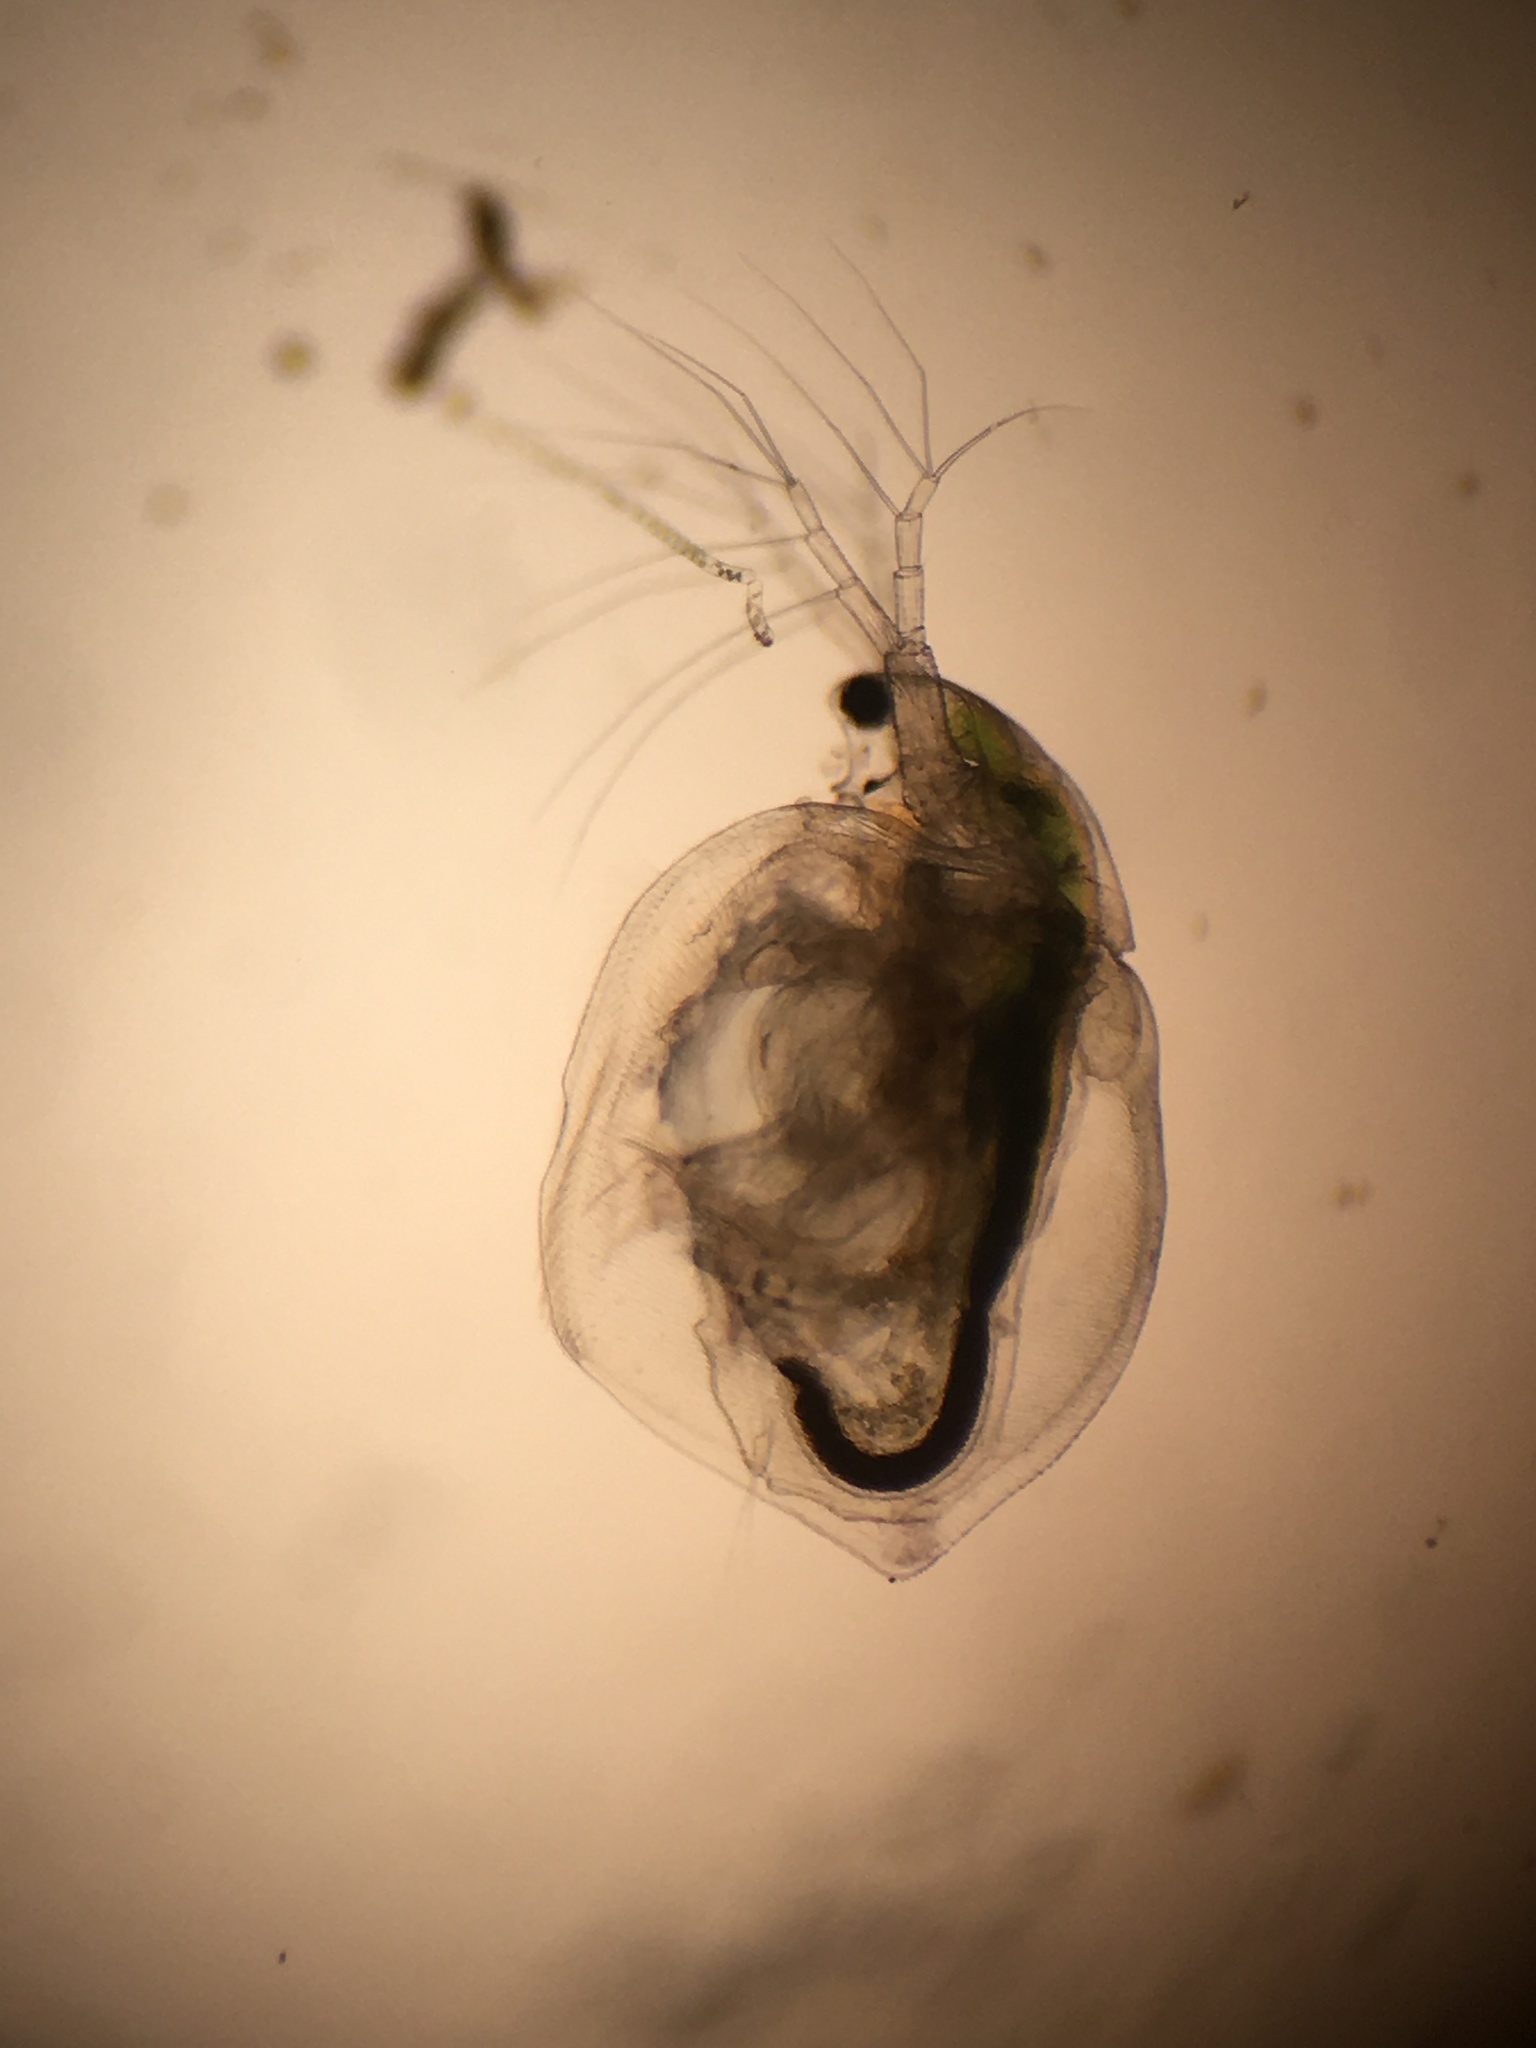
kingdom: Animalia
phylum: Arthropoda
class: Branchiopoda
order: Diplostraca
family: Daphniidae
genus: Simocephalus
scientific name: Simocephalus mixtus
